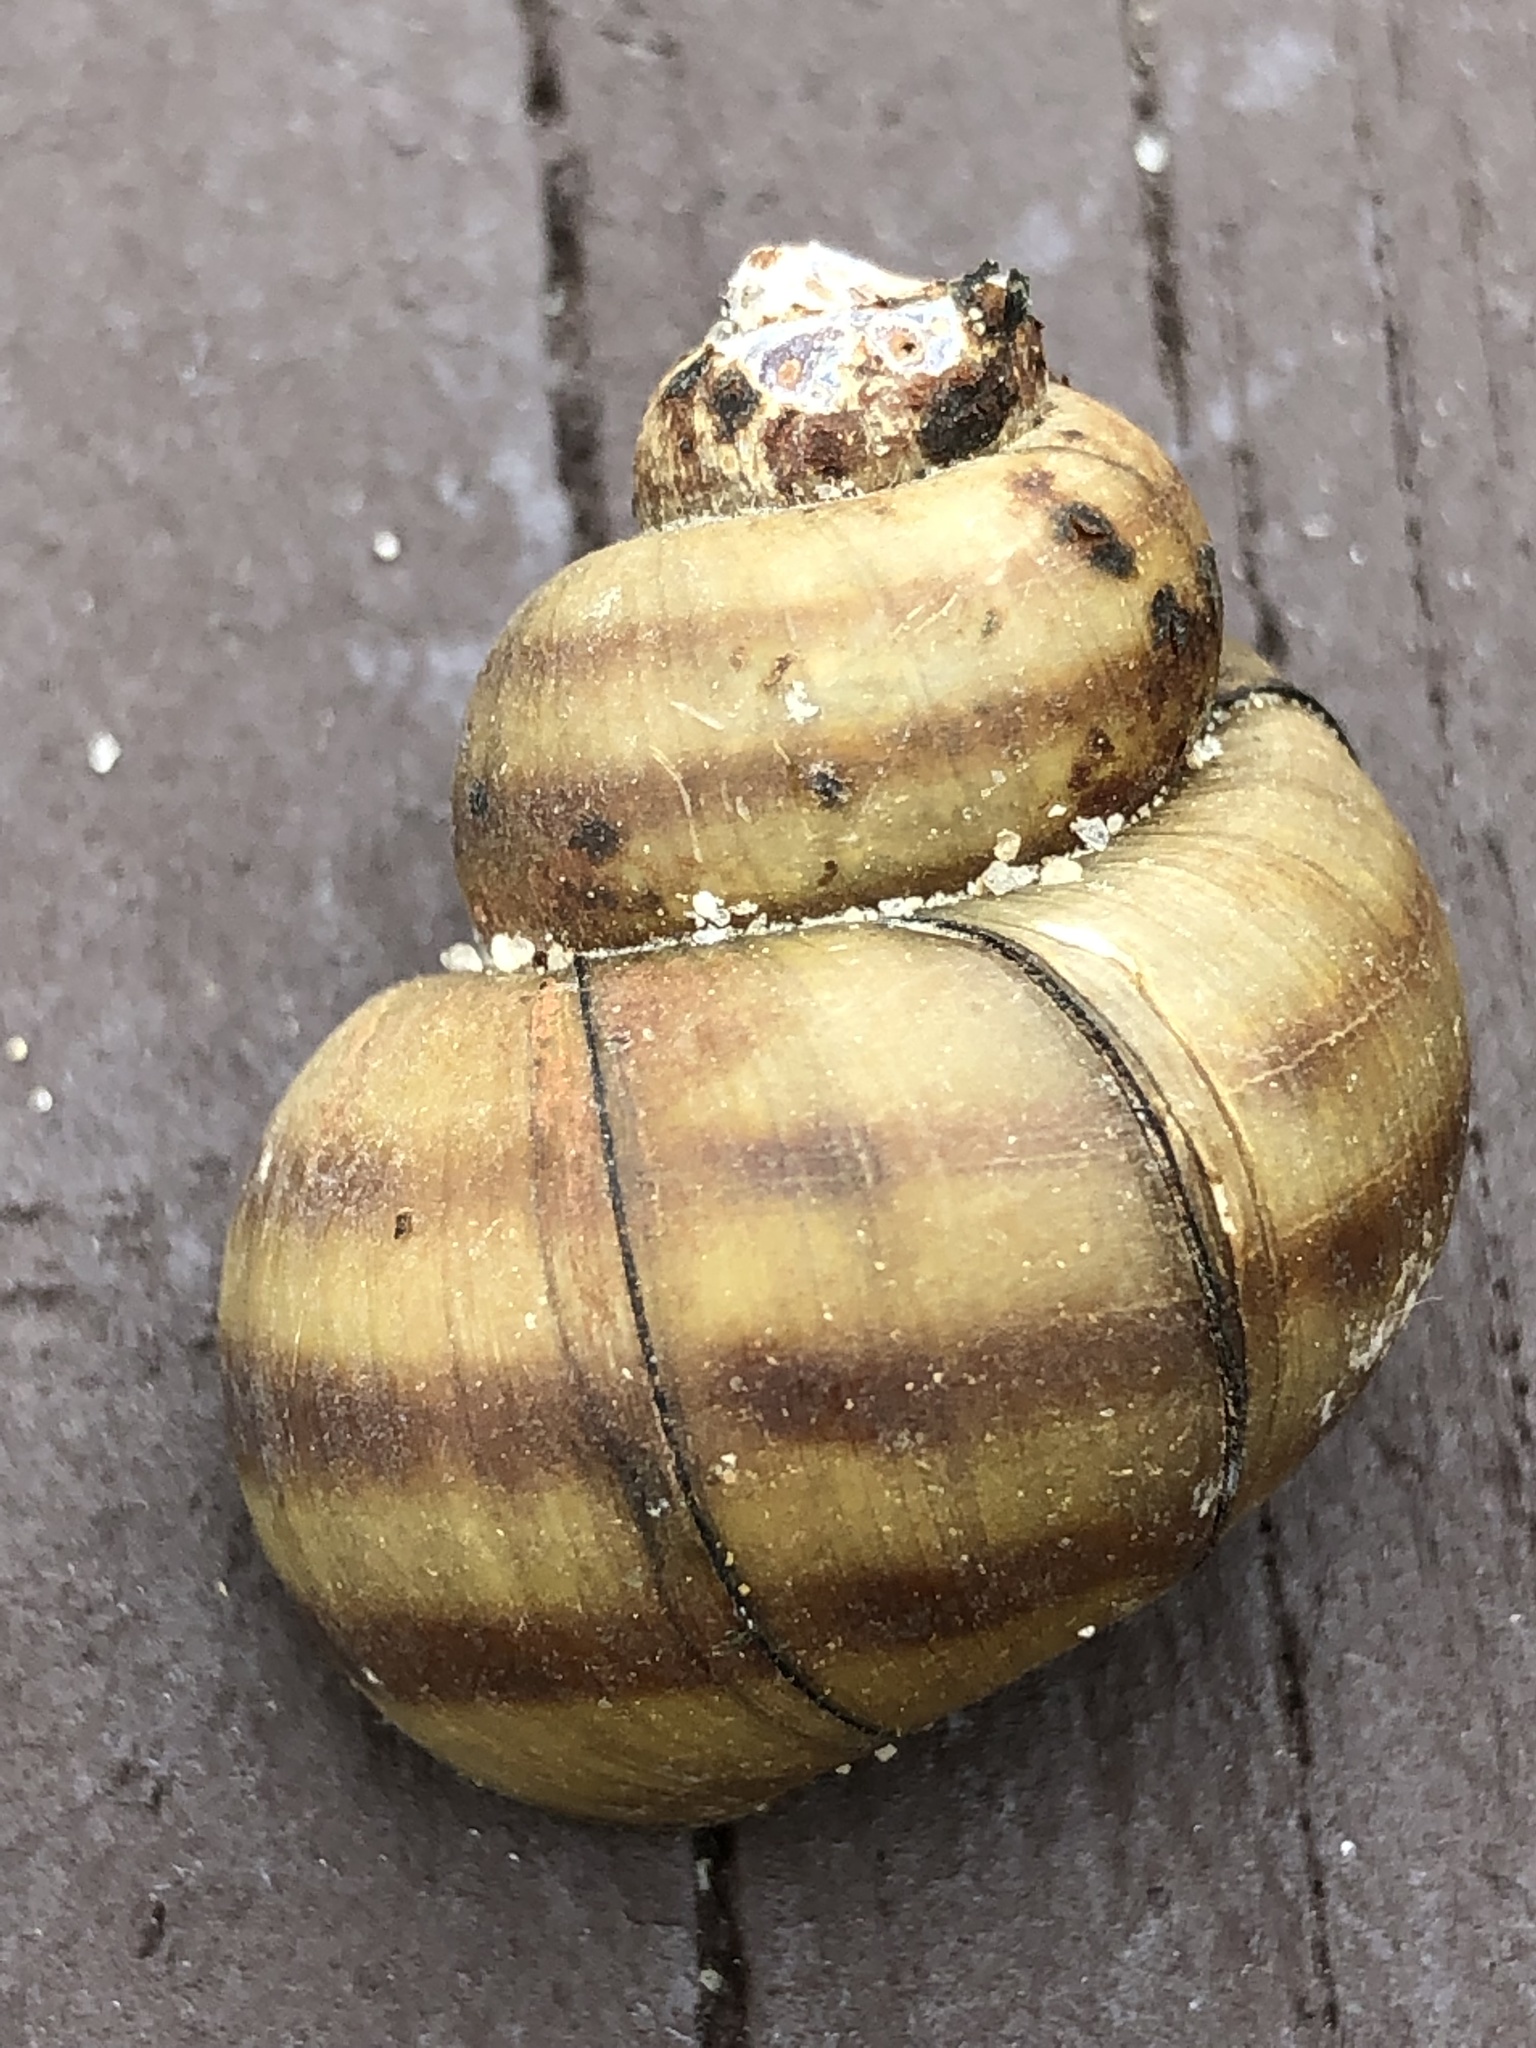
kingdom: Animalia
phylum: Mollusca
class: Gastropoda
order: Architaenioglossa
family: Viviparidae
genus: Callinina
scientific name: Callinina georgiana
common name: Banded mystery snail
